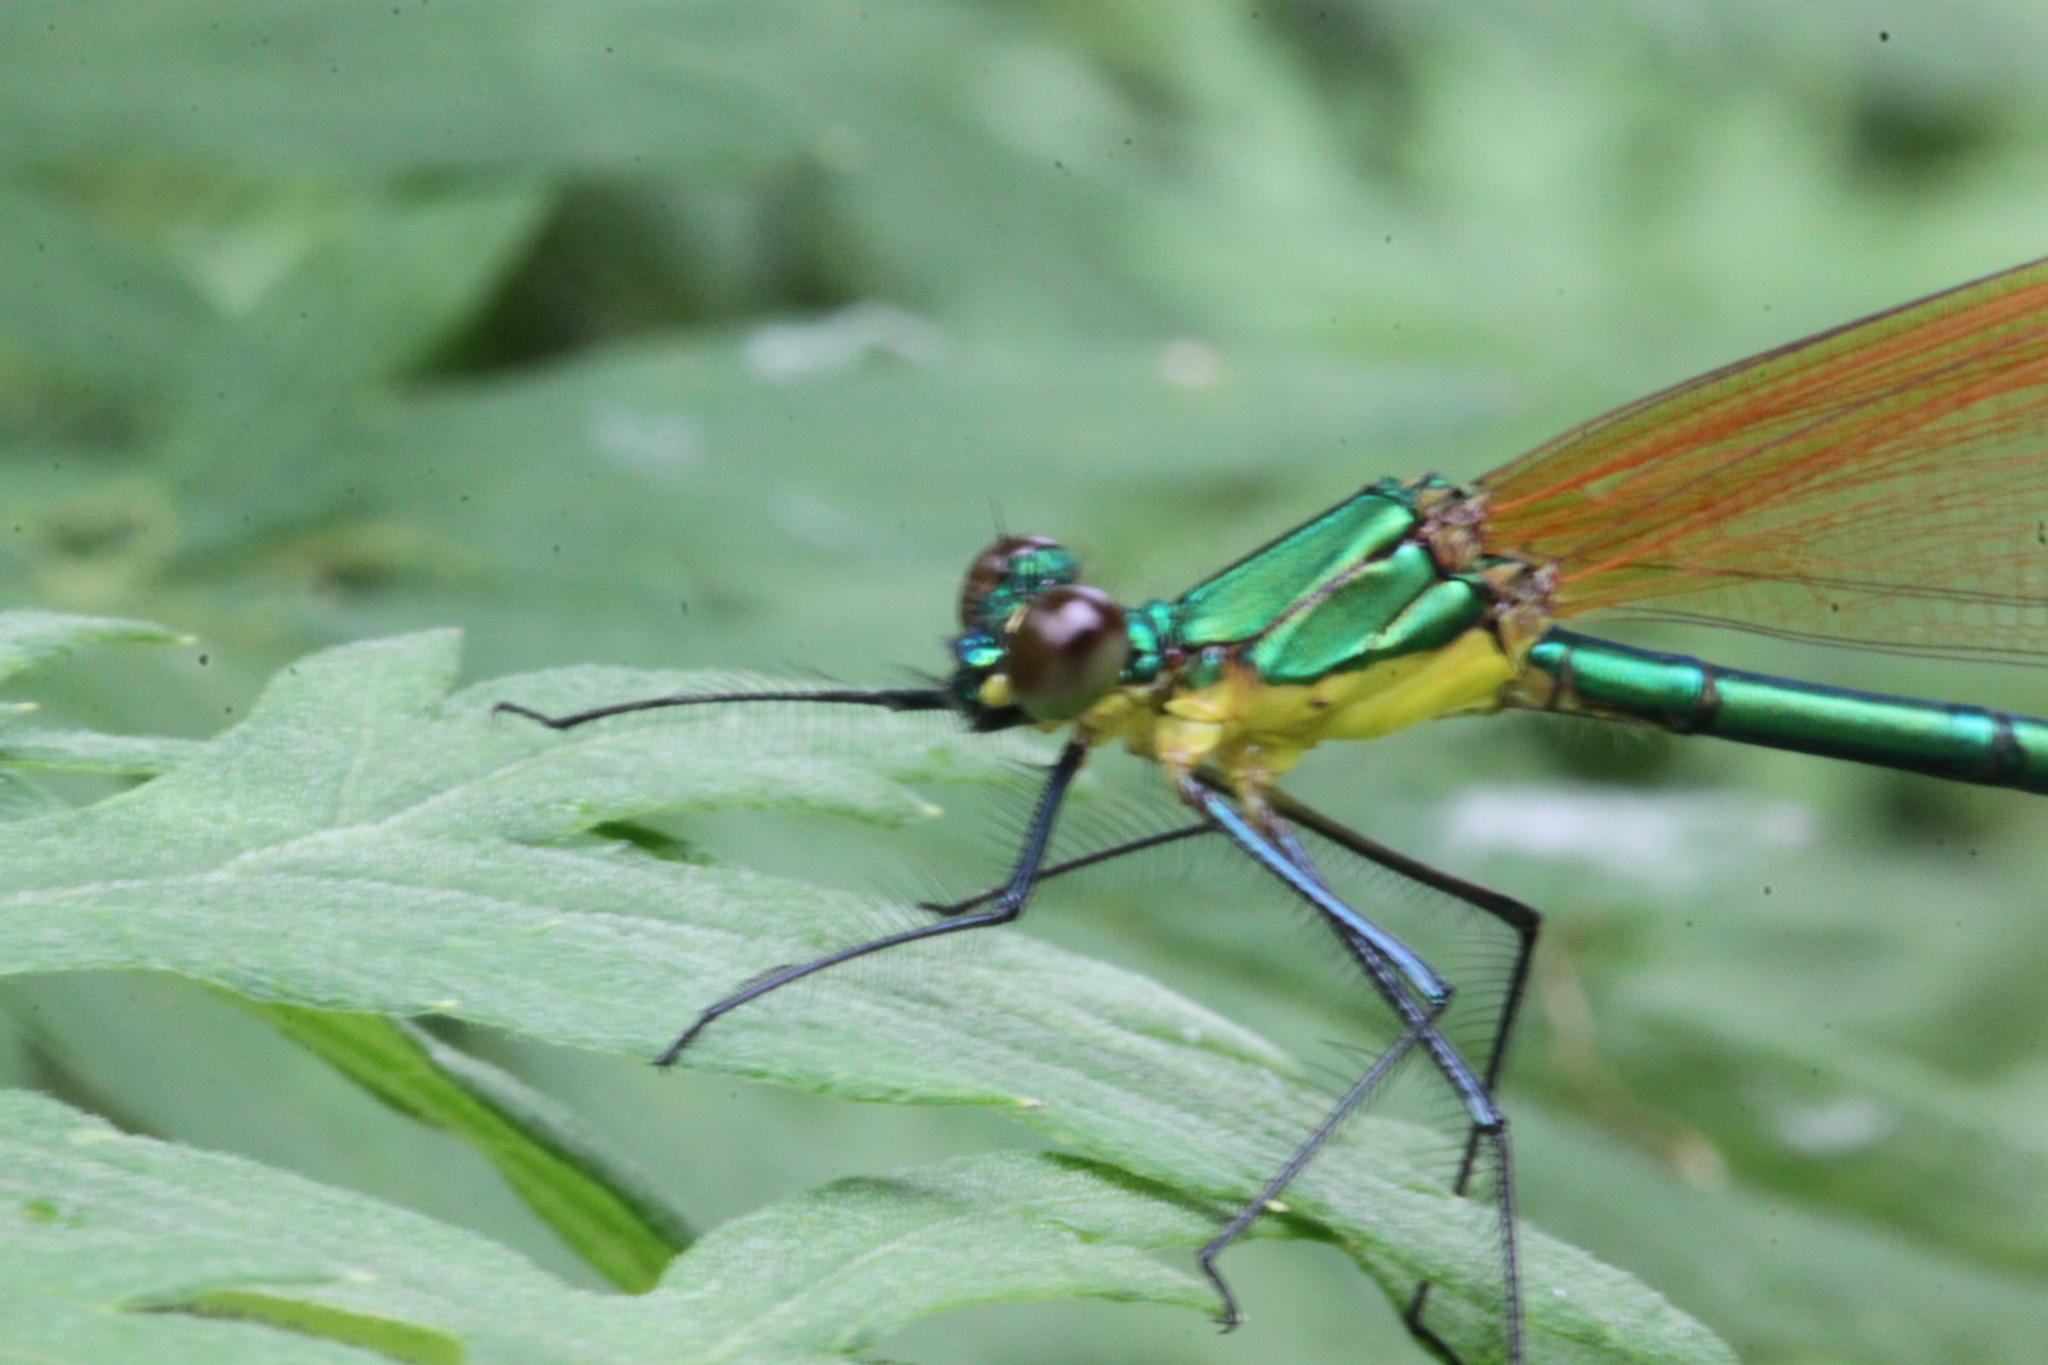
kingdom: Animalia
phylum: Arthropoda
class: Insecta
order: Odonata
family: Calopterygidae
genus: Vestalaria
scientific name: Vestalaria smaragdina
